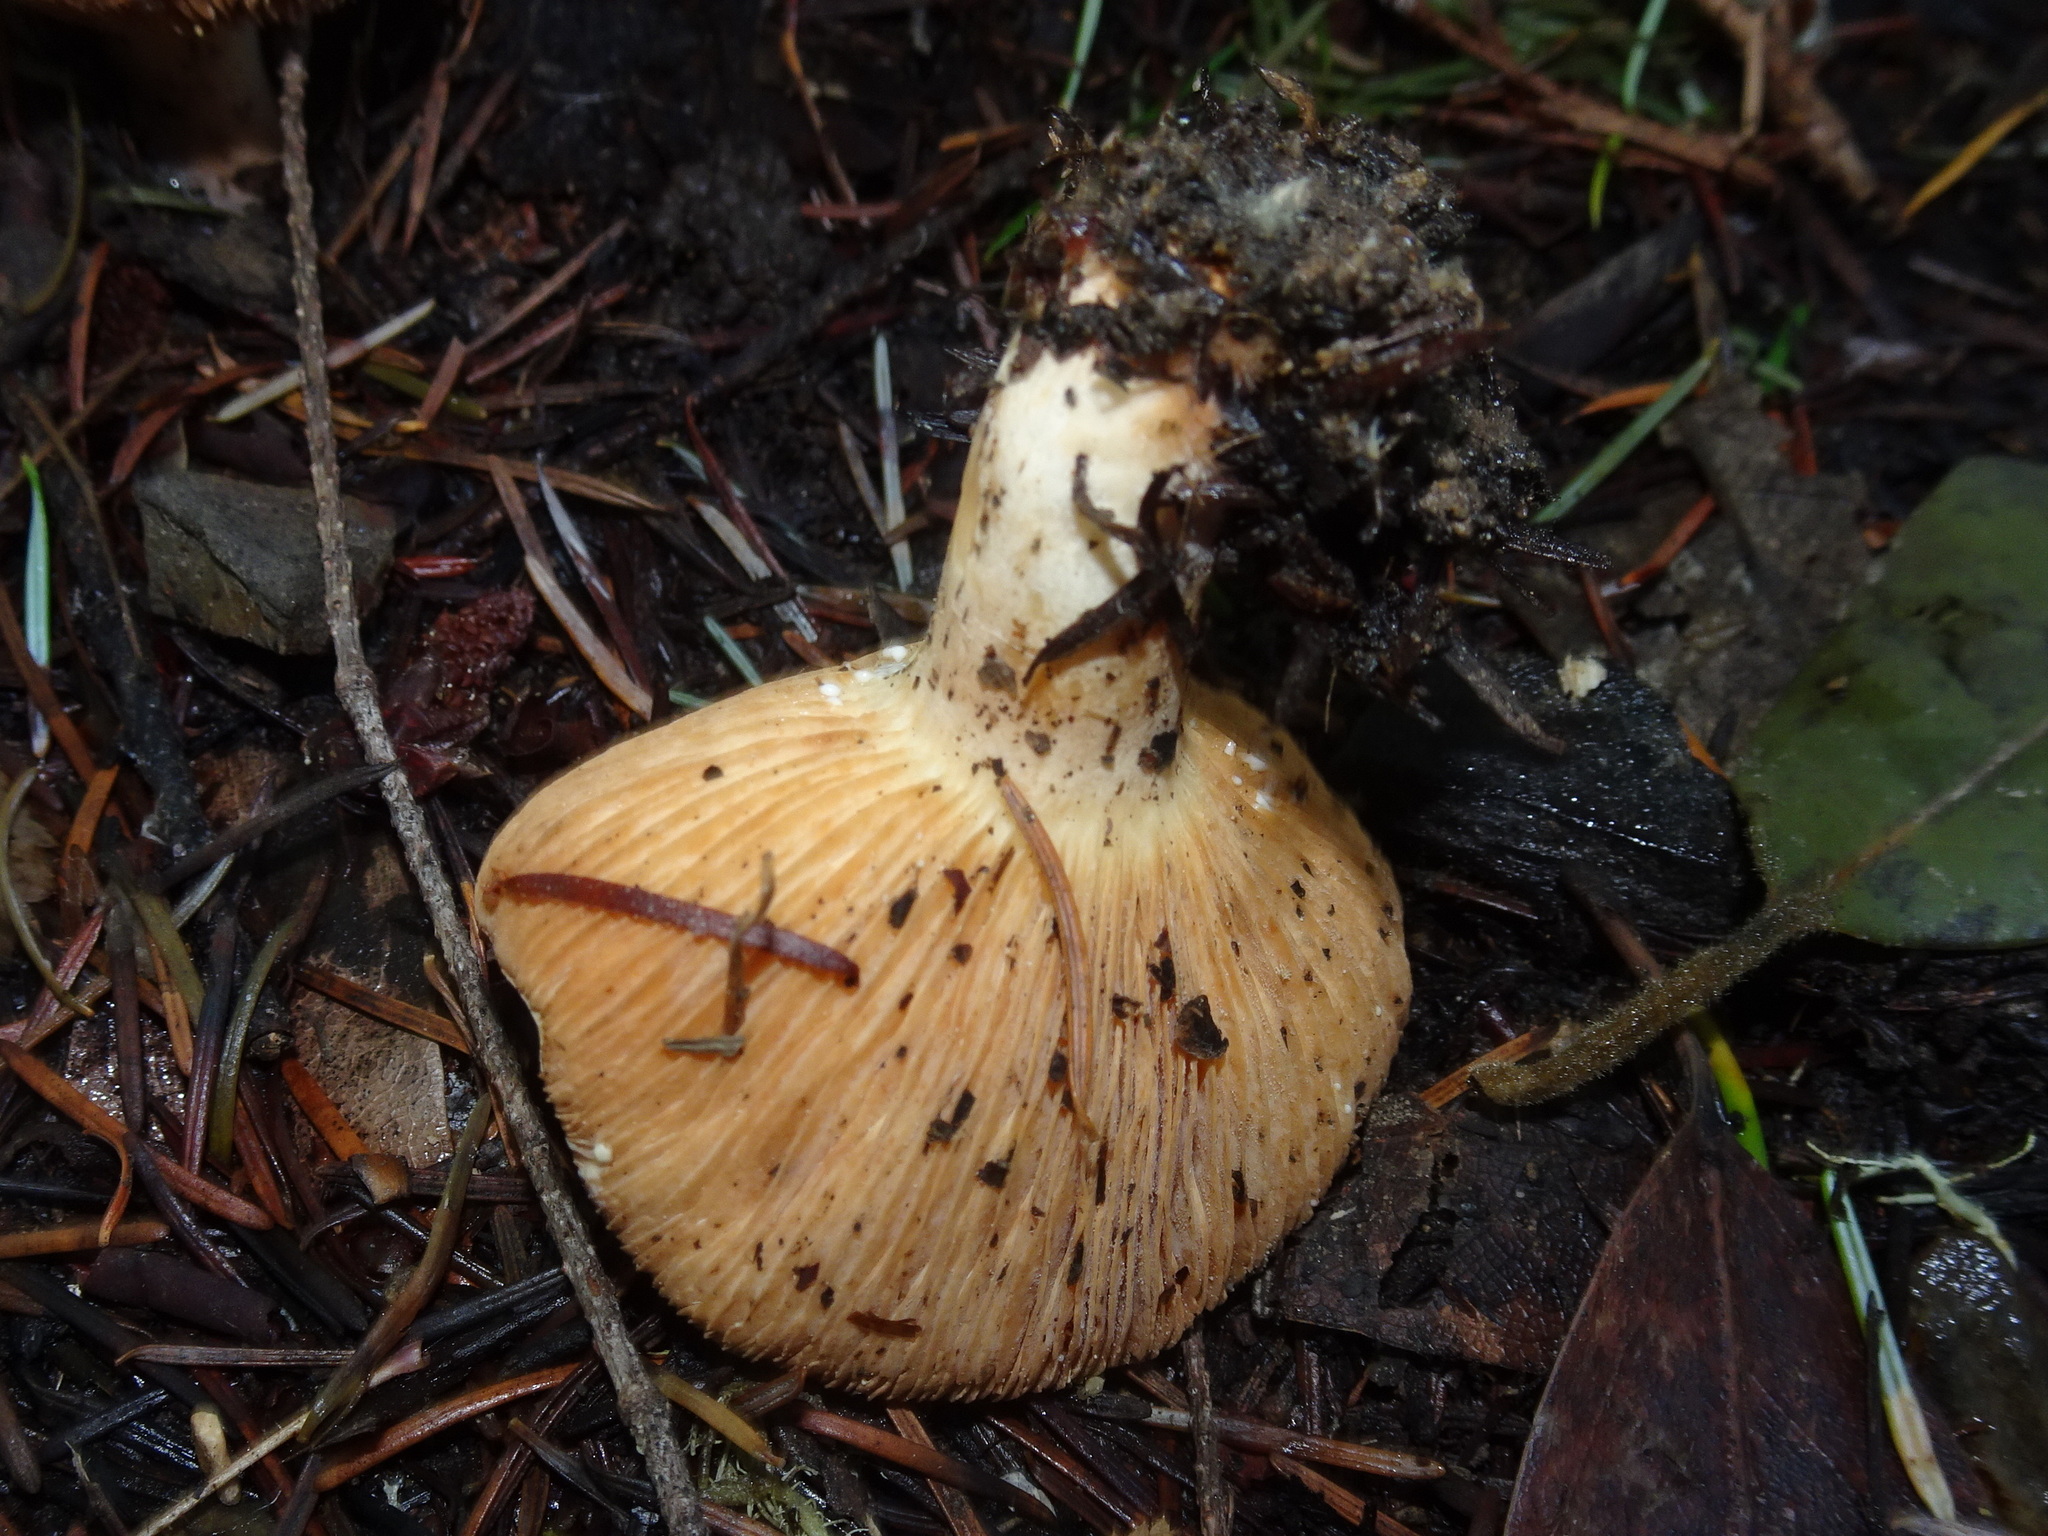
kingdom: Fungi
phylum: Basidiomycota
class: Agaricomycetes
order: Russulales
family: Russulaceae
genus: Lactarius
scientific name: Lactarius xanthogalactus
